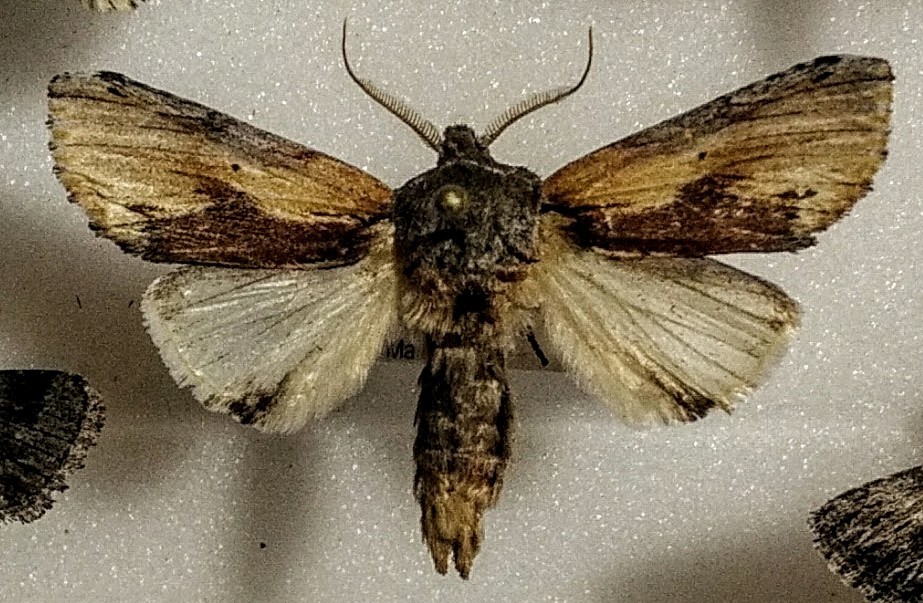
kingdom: Animalia
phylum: Arthropoda
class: Insecta
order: Lepidoptera
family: Notodontidae
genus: Schizura
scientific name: Schizura
